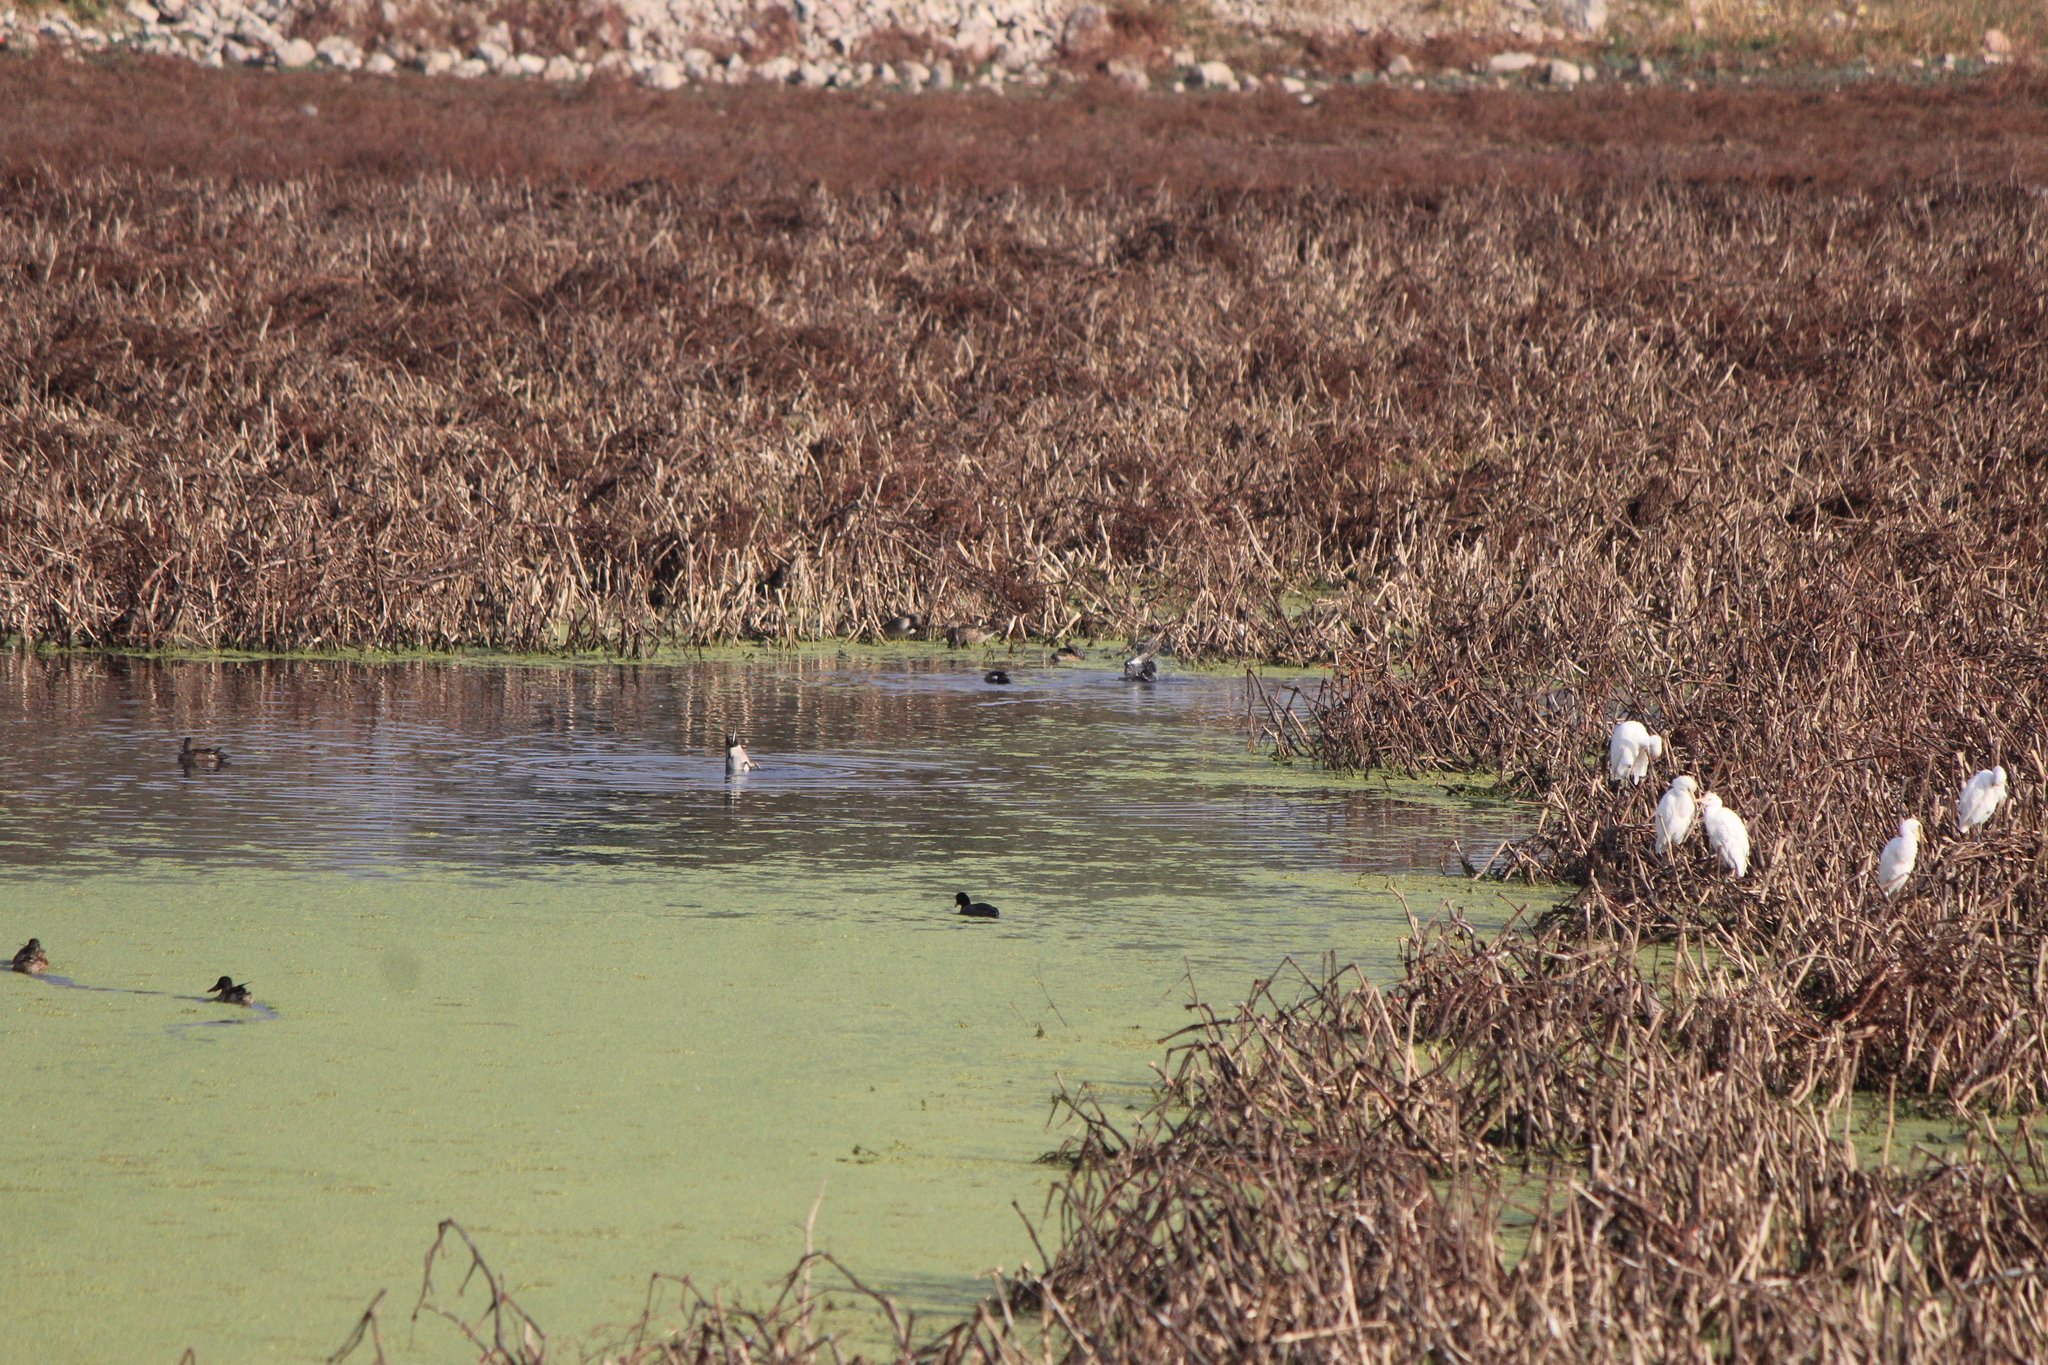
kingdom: Animalia
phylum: Chordata
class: Aves
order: Anseriformes
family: Anatidae
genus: Anas
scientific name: Anas acuta
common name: Northern pintail
